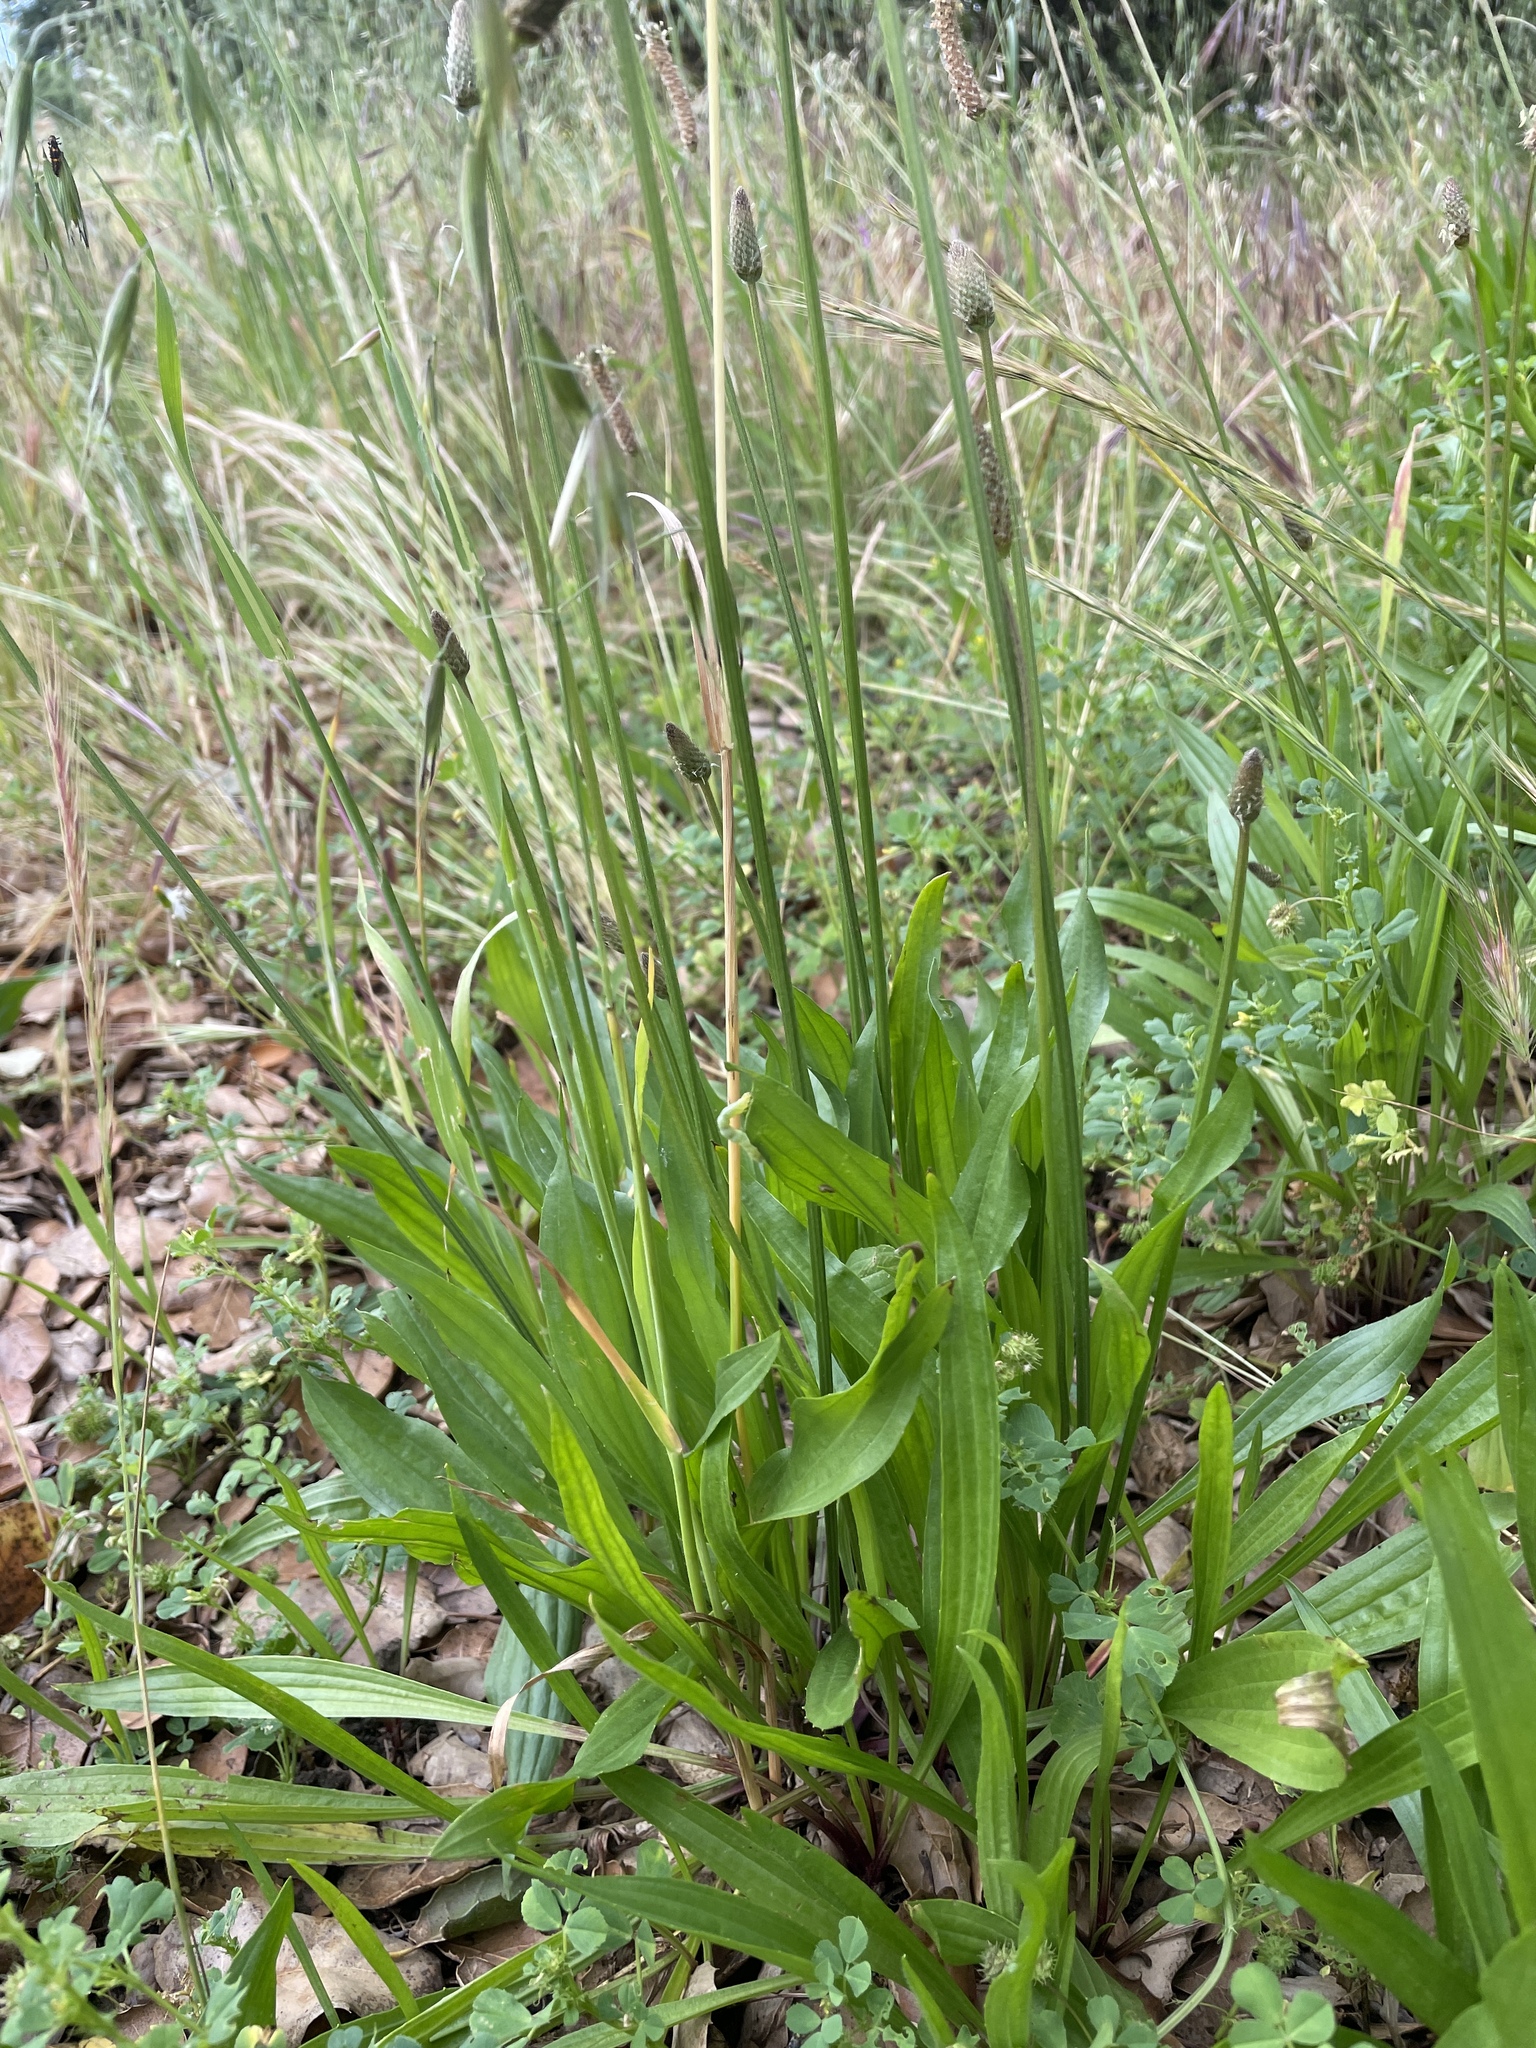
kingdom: Plantae
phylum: Tracheophyta
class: Magnoliopsida
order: Lamiales
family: Plantaginaceae
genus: Plantago
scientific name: Plantago lanceolata
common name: Ribwort plantain
